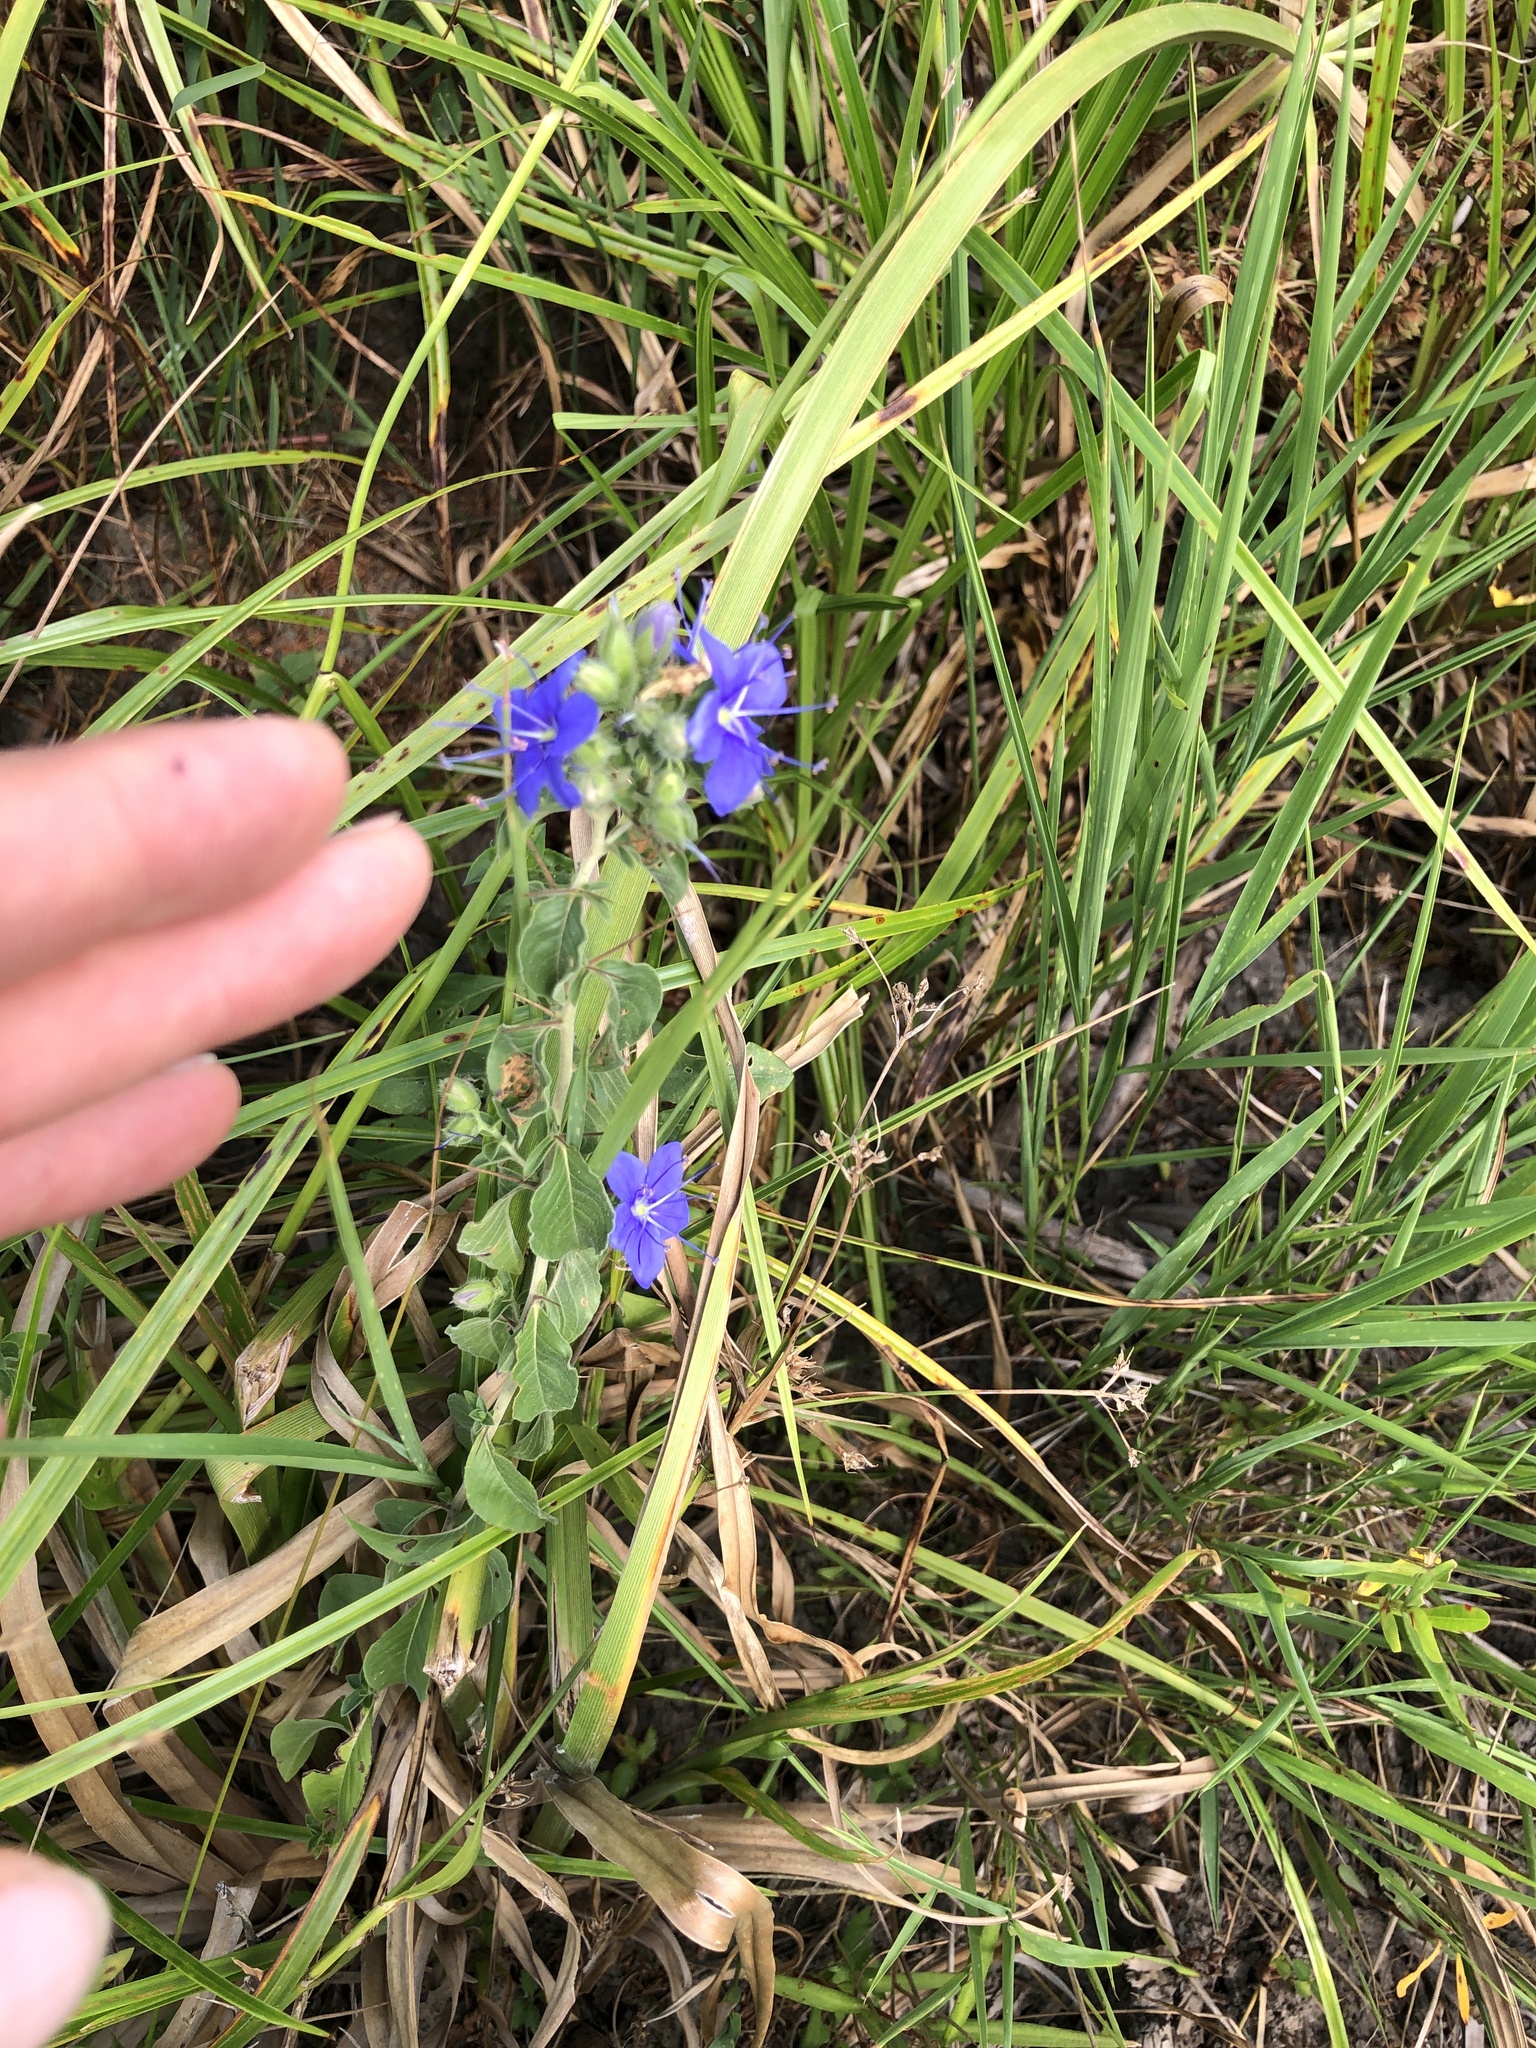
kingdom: Plantae
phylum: Tracheophyta
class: Magnoliopsida
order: Solanales
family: Hydroleaceae
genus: Hydrolea
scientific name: Hydrolea ovata
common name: Ovate false fiddleleaf
